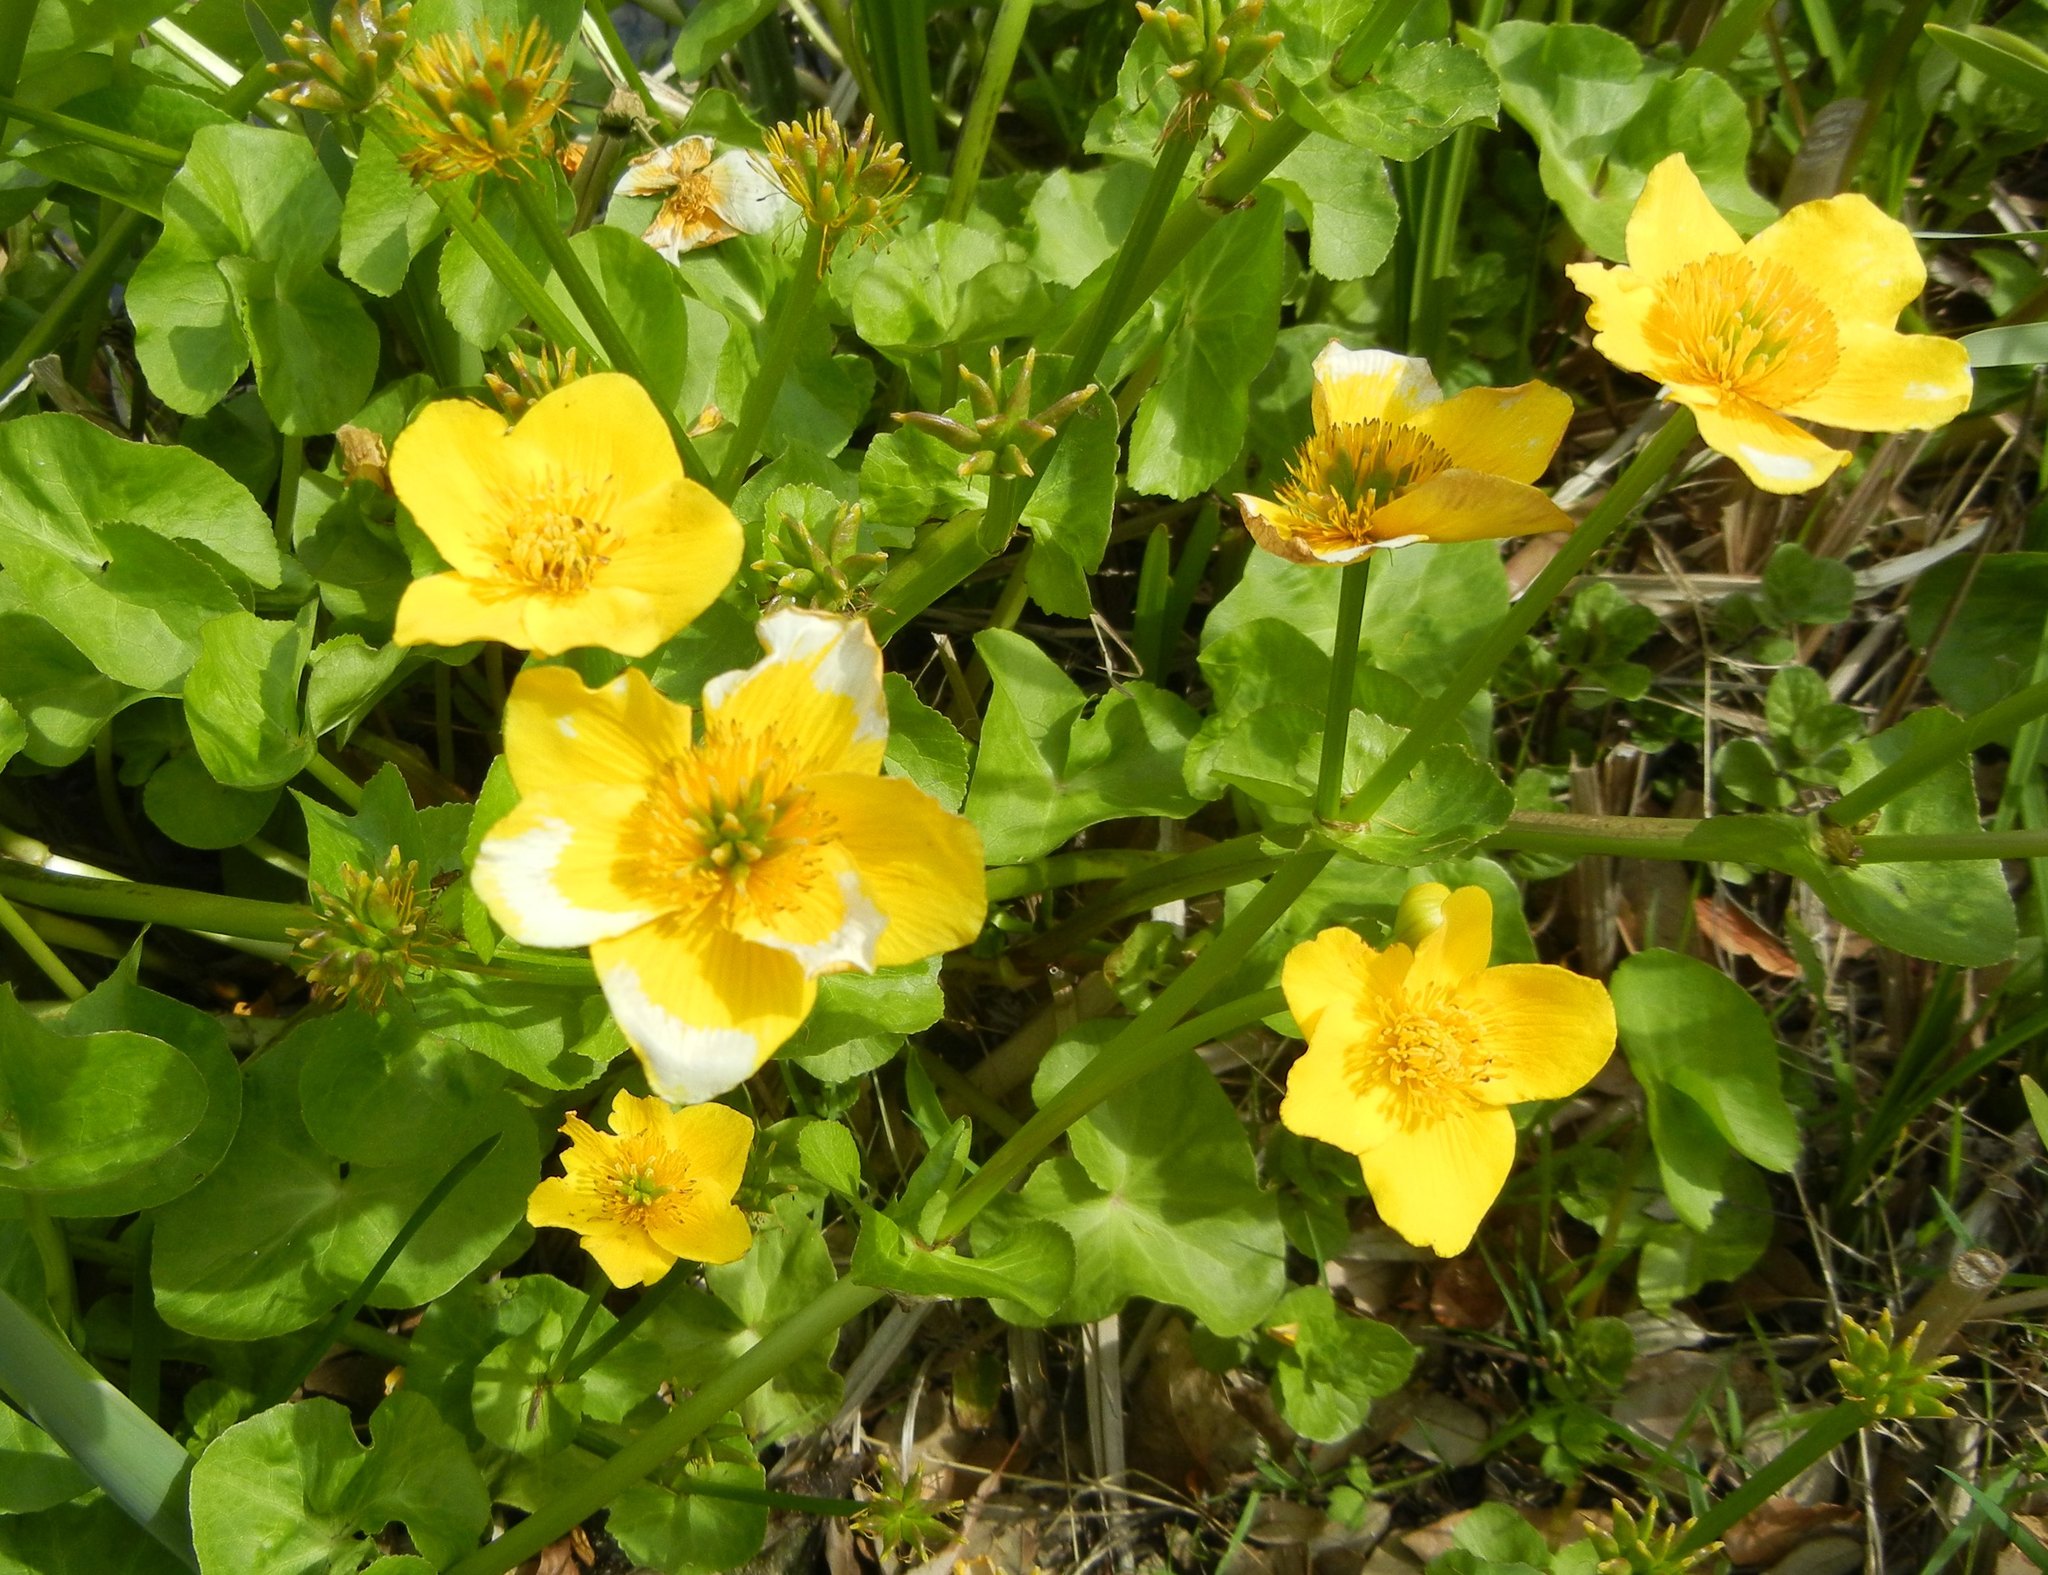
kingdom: Plantae
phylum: Tracheophyta
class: Magnoliopsida
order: Ranunculales
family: Ranunculaceae
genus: Caltha
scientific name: Caltha palustris
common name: Marsh marigold
